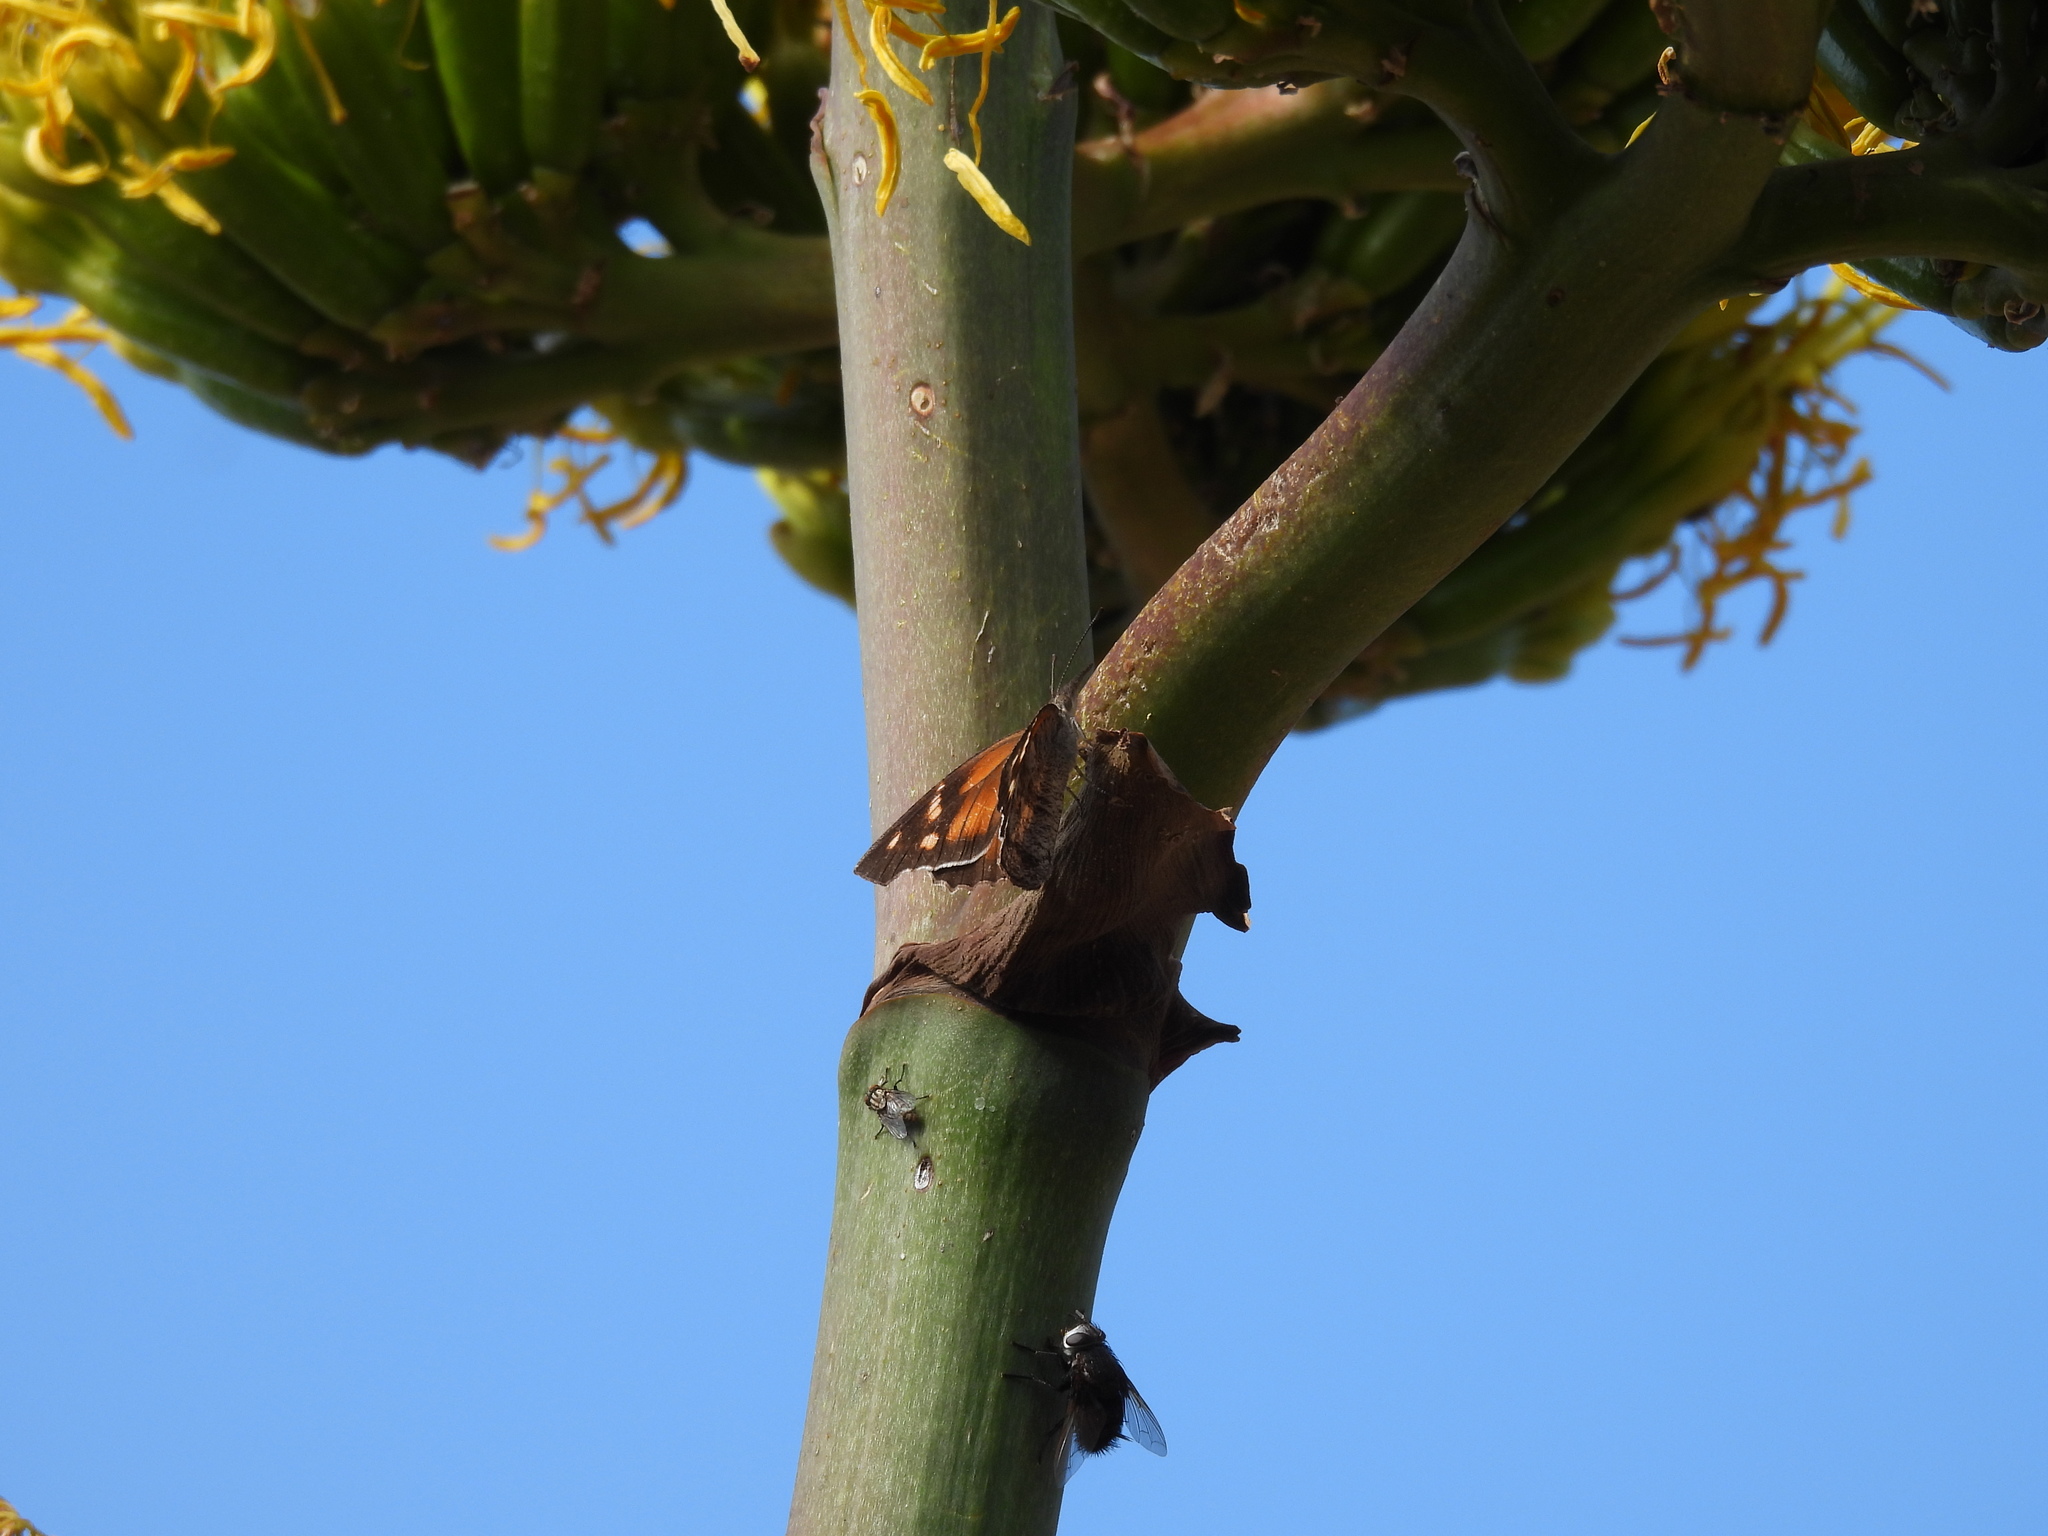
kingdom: Animalia
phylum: Arthropoda
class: Insecta
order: Lepidoptera
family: Nymphalidae
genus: Libytheana
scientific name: Libytheana carinenta
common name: American snout
